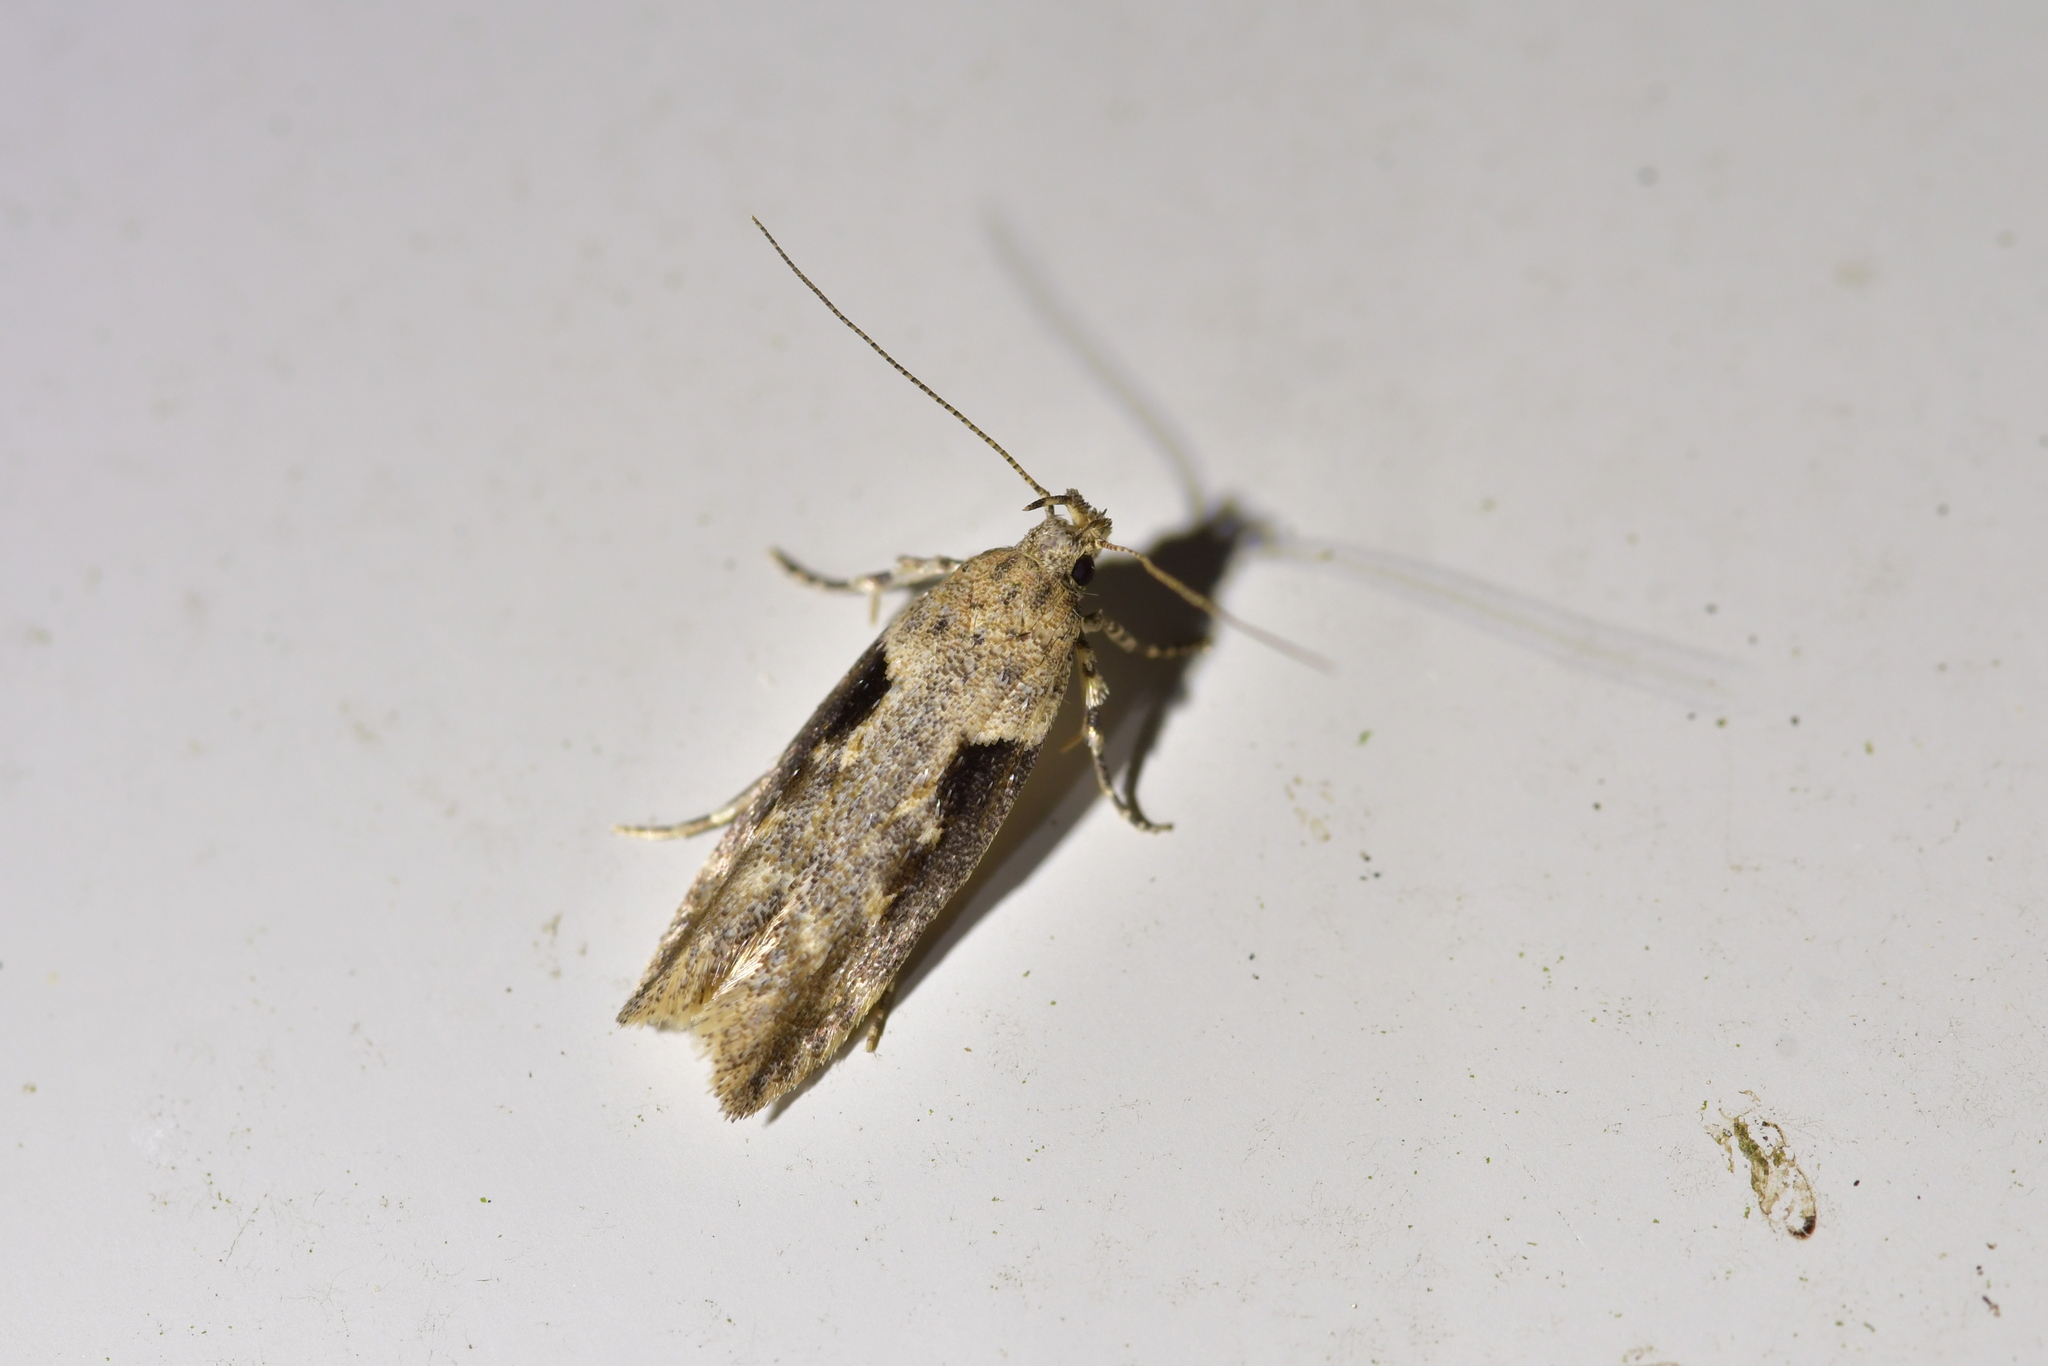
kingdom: Animalia
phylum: Arthropoda
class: Insecta
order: Lepidoptera
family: Gelechiidae
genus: Symmetrischema
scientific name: Symmetrischema tangolias
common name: Moth
